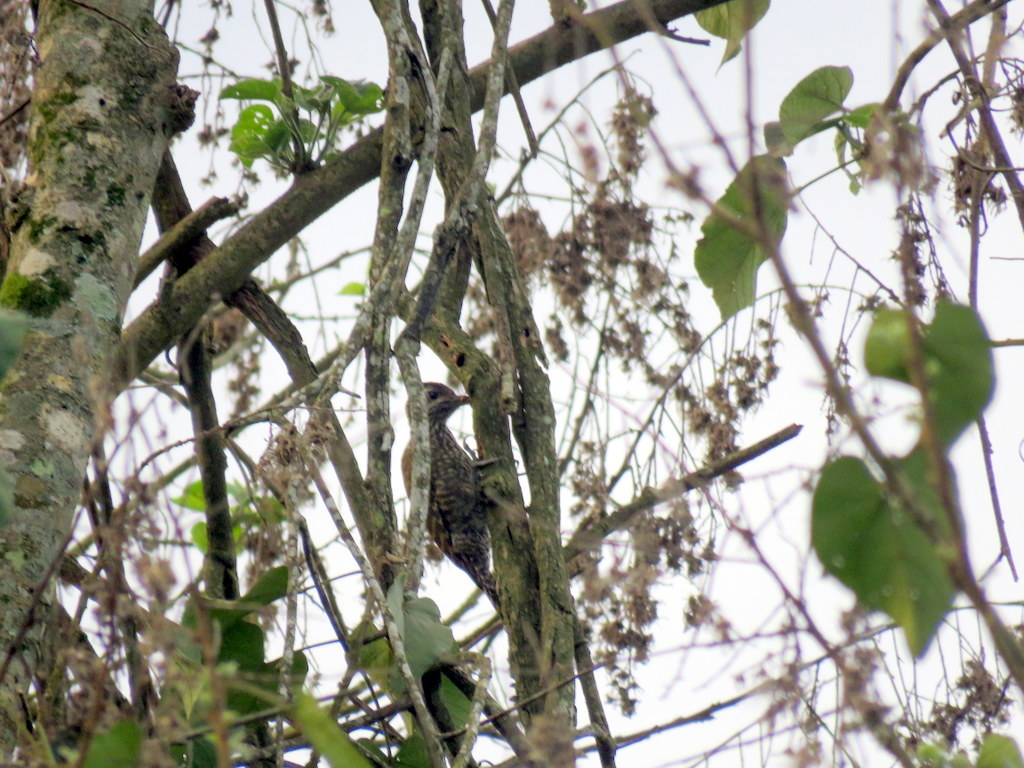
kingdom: Animalia
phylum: Chordata
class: Aves
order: Piciformes
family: Picidae
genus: Veniliornis
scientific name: Veniliornis spilogaster
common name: White-spotted woodpecker
